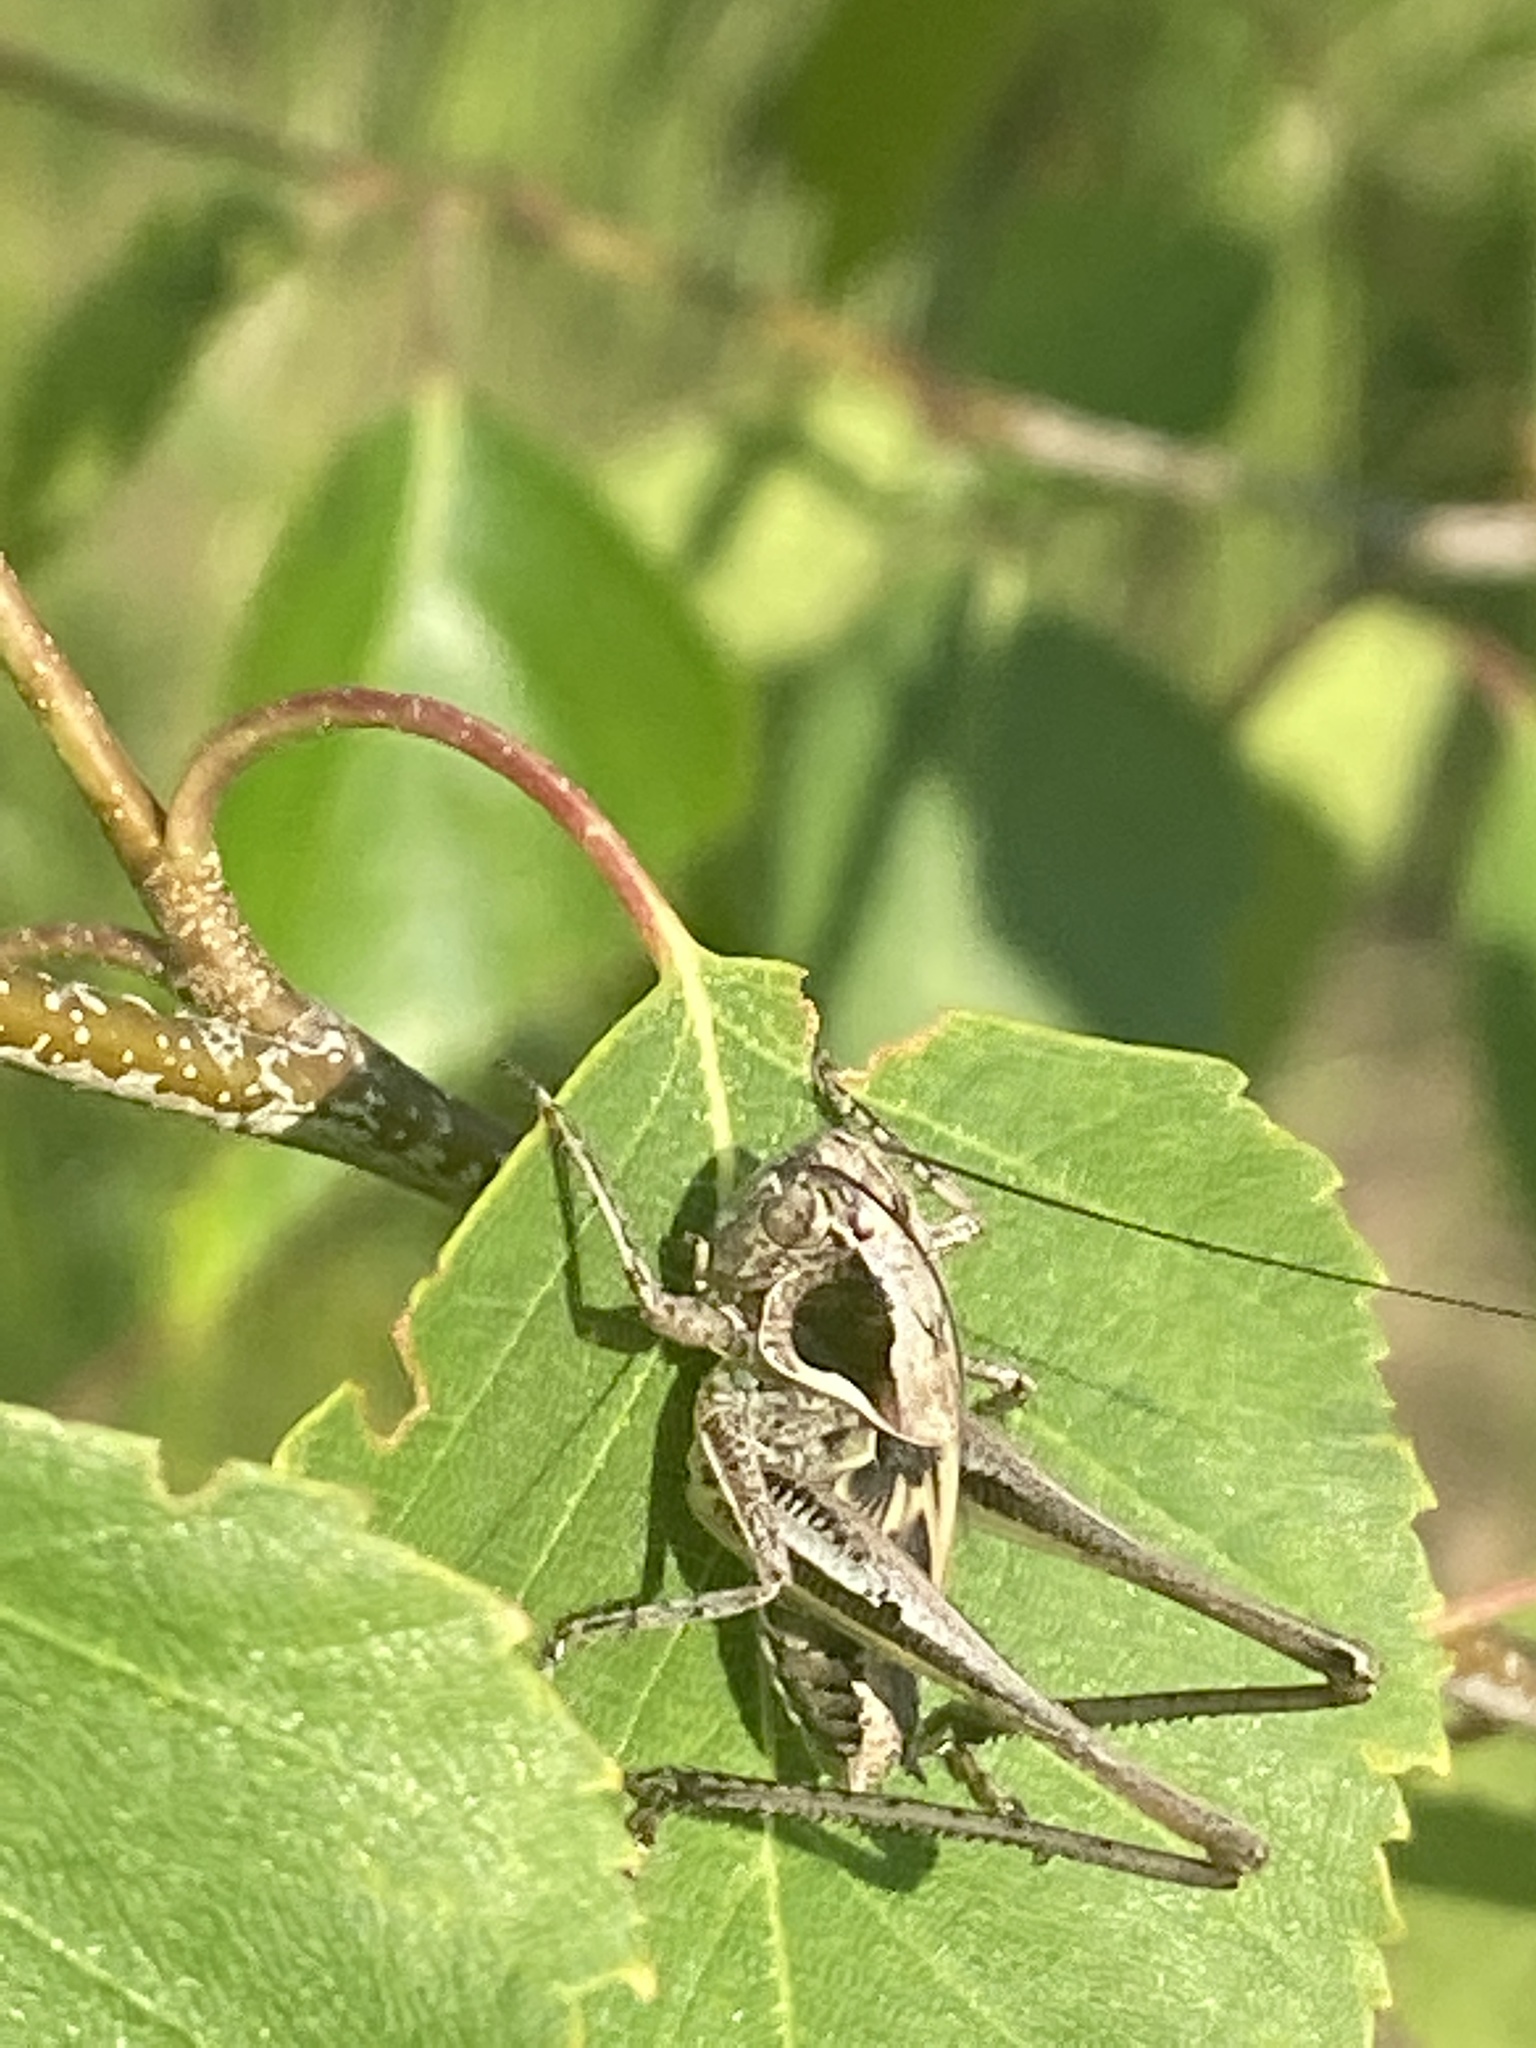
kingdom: Animalia
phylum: Arthropoda
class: Insecta
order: Orthoptera
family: Tettigoniidae
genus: Platycleis
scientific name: Platycleis albopunctata
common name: Grey bush-cricket
